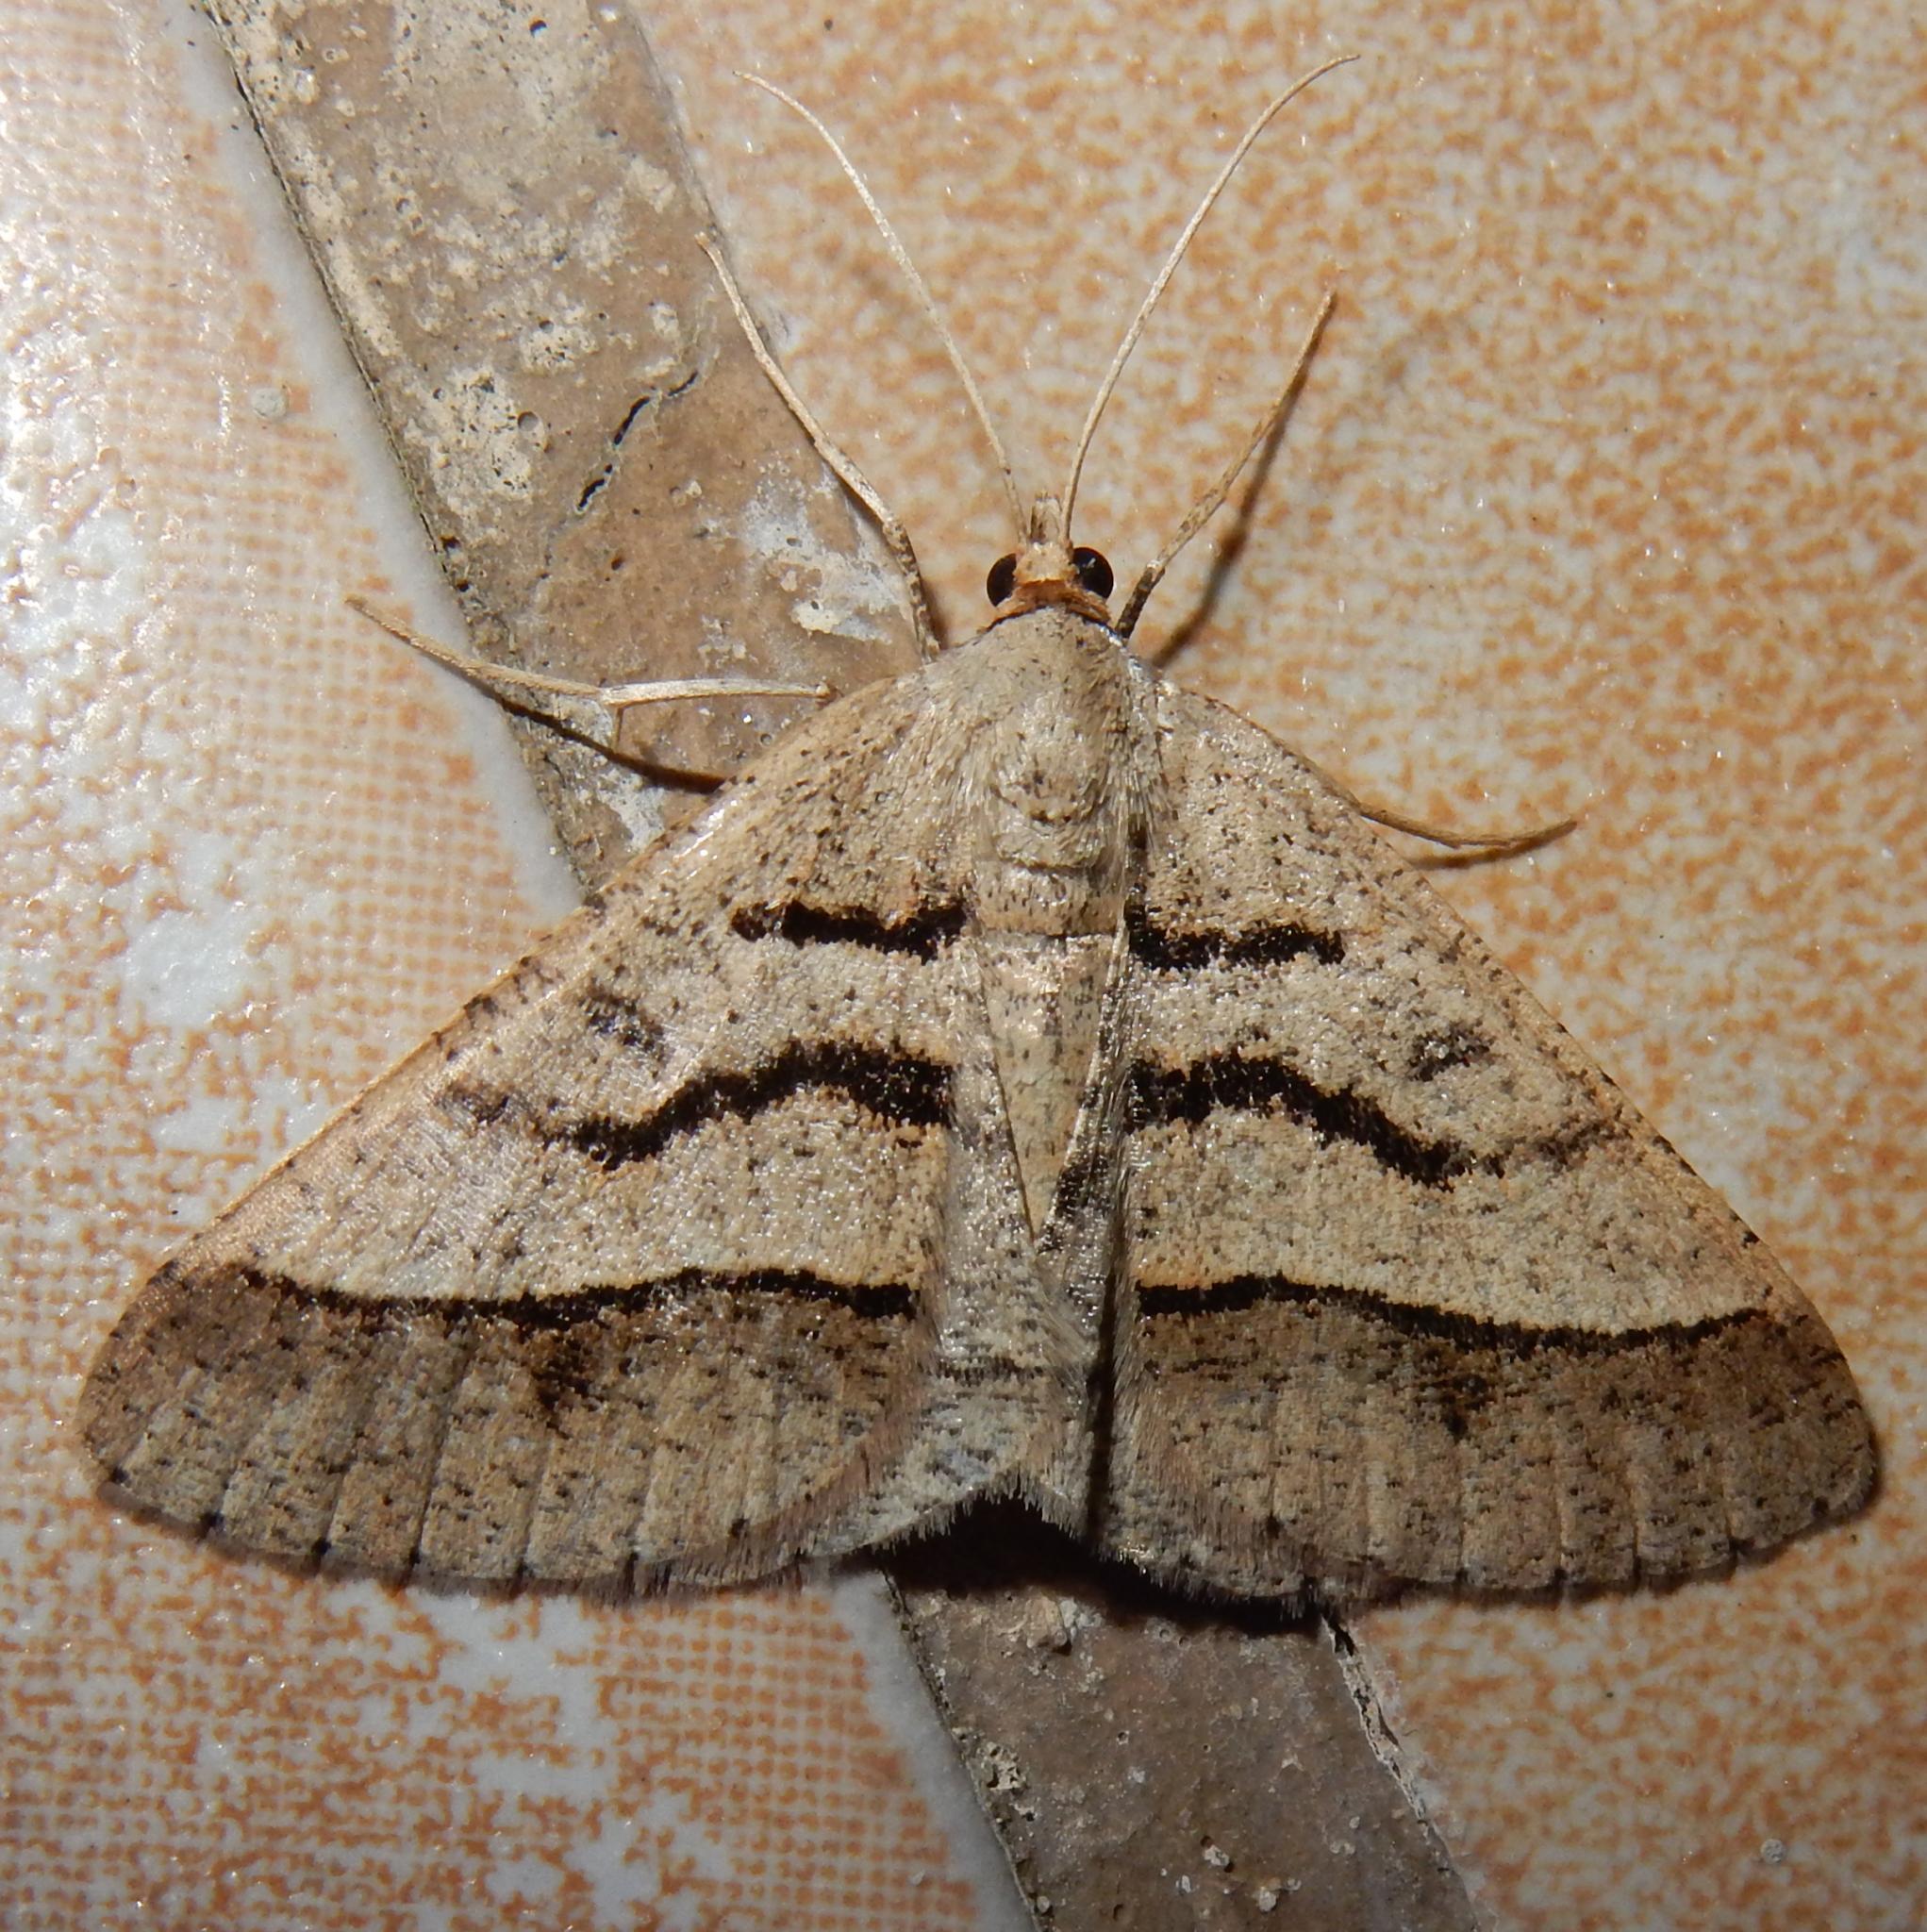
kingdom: Animalia
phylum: Arthropoda
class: Insecta
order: Lepidoptera
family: Geometridae
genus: Isturgia
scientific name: Isturgia spissata
